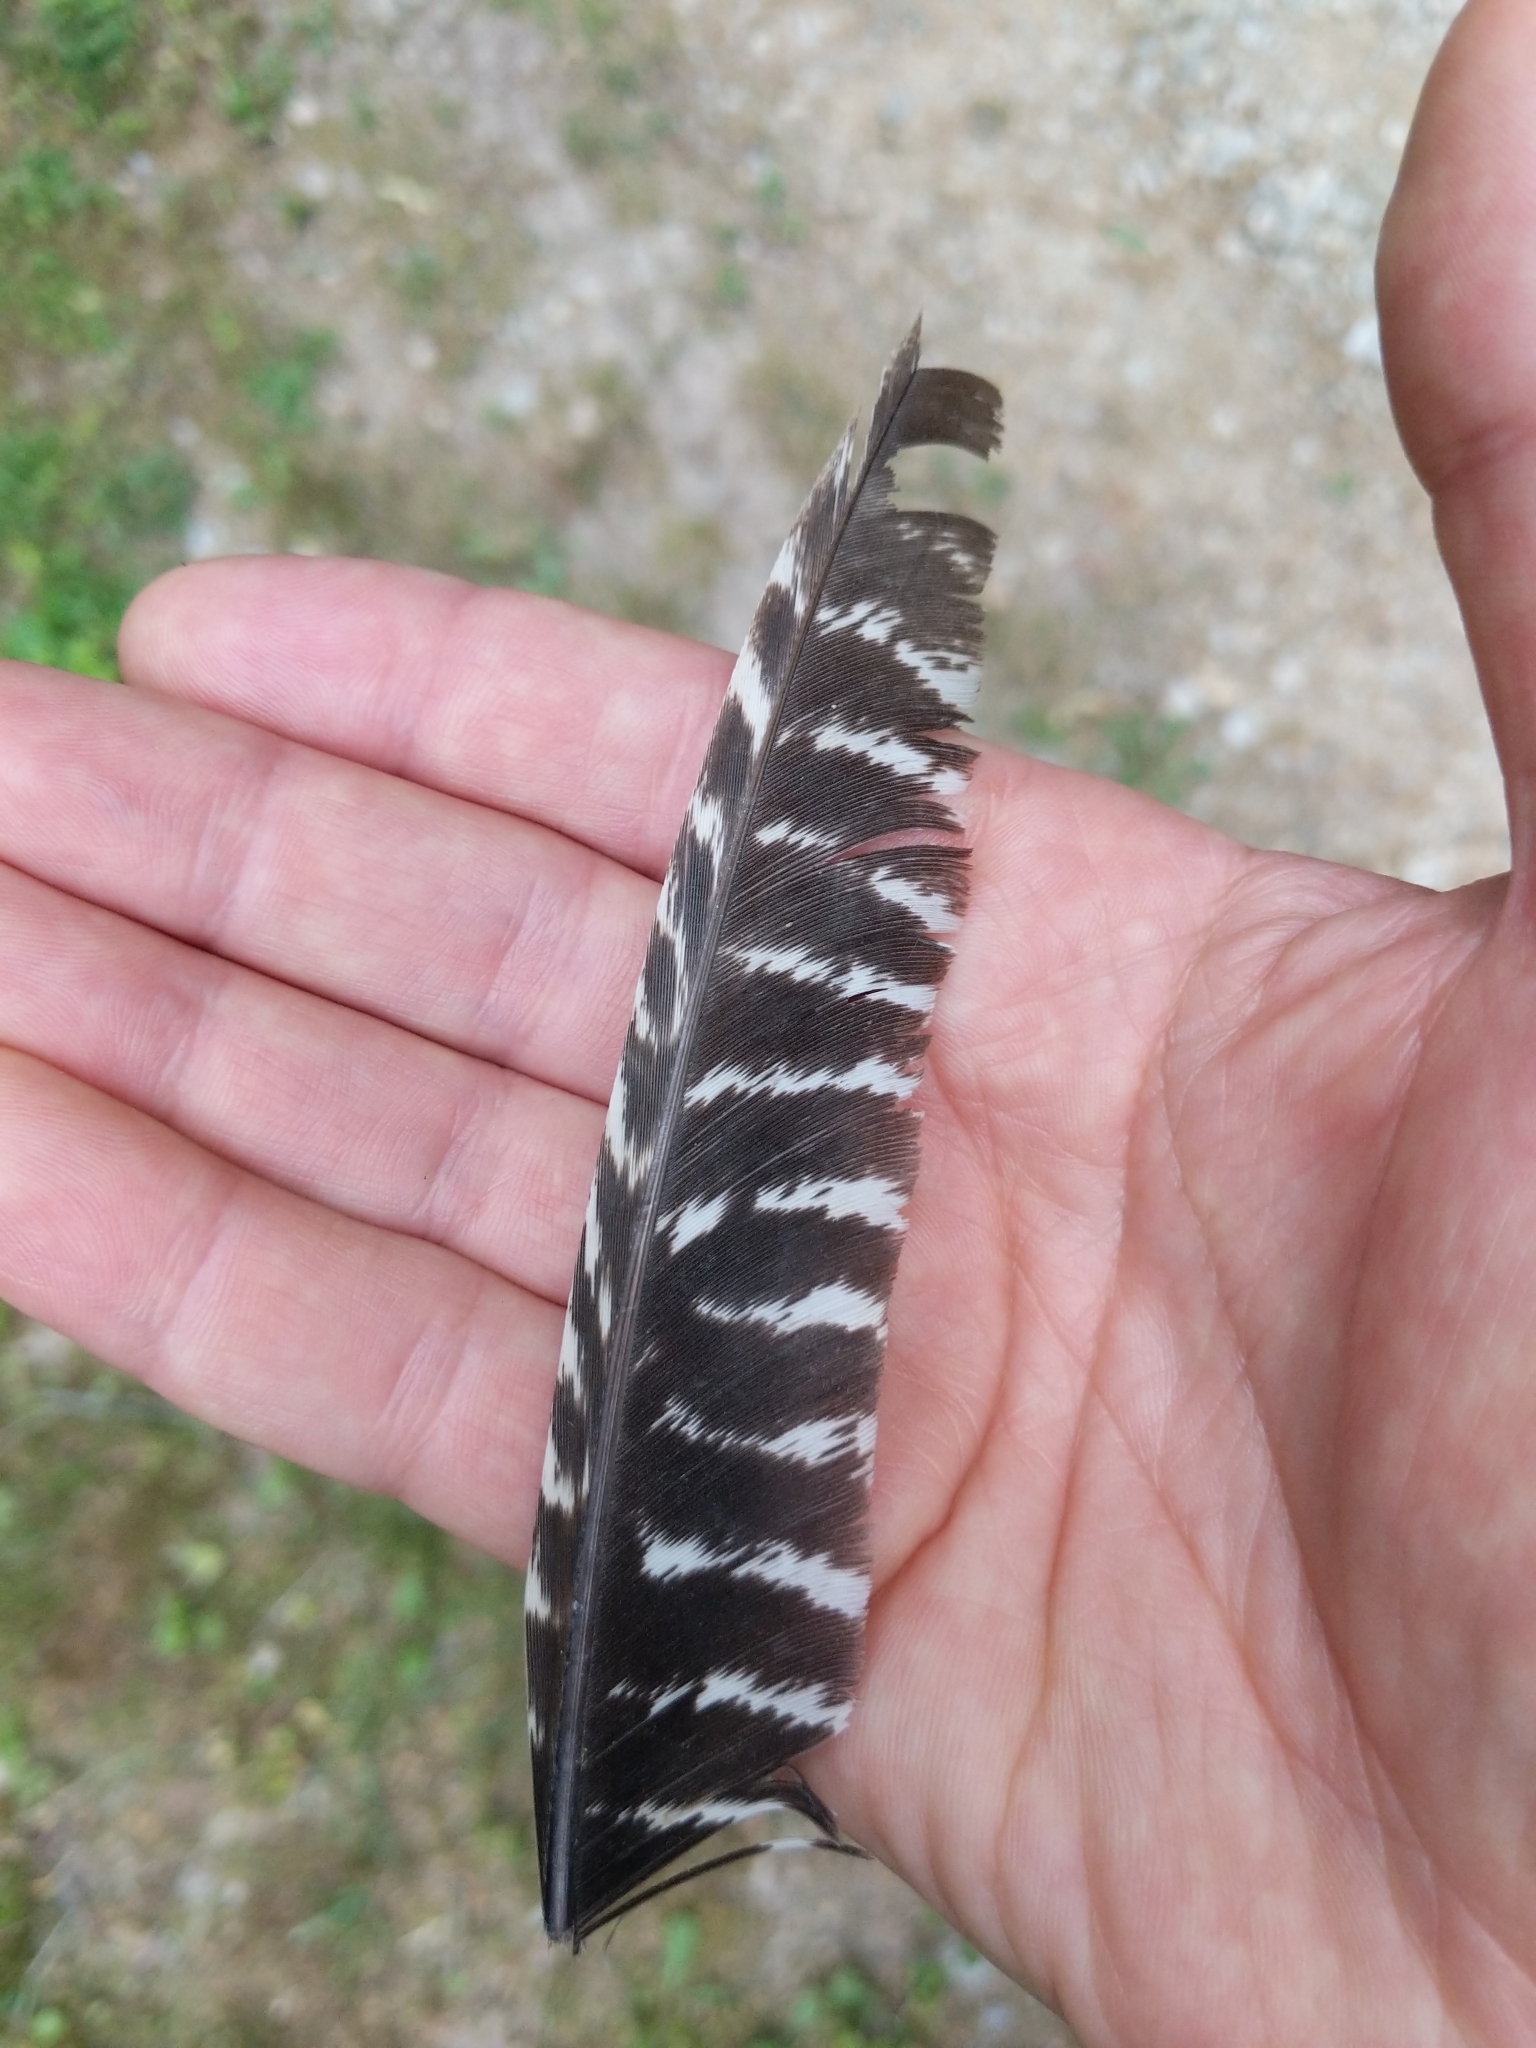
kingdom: Animalia
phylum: Chordata
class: Aves
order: Galliformes
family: Phasianidae
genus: Meleagris
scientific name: Meleagris gallopavo
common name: Wild turkey
